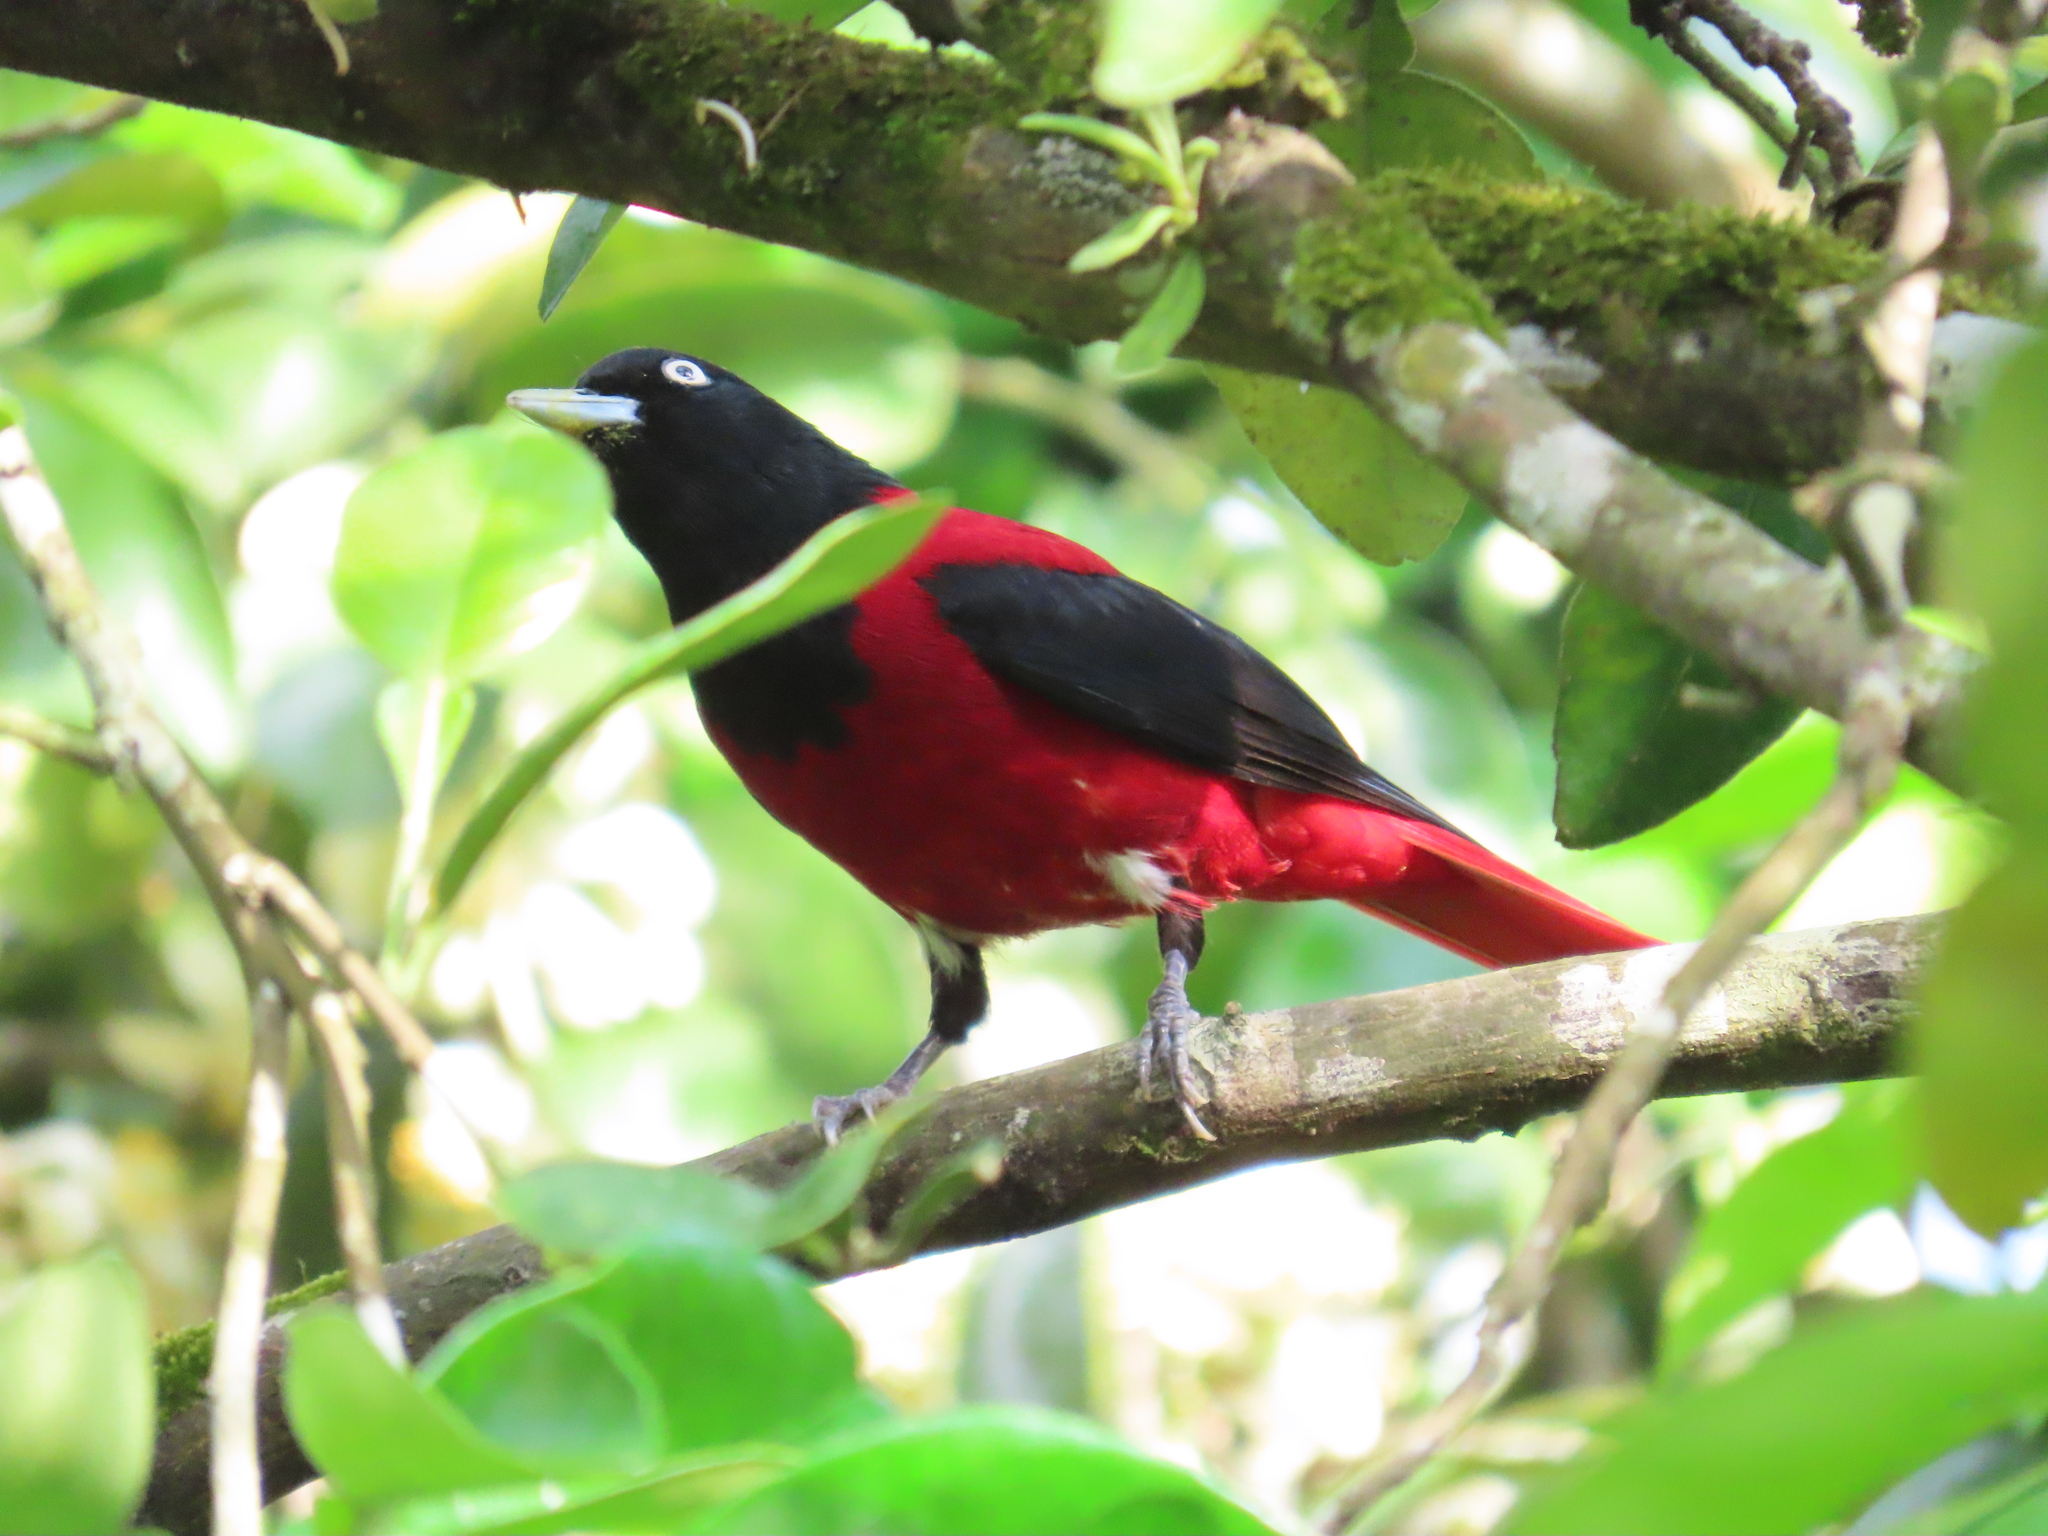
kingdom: Animalia
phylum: Chordata
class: Aves
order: Passeriformes
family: Oriolidae
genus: Oriolus
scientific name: Oriolus traillii
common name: Maroon oriole
